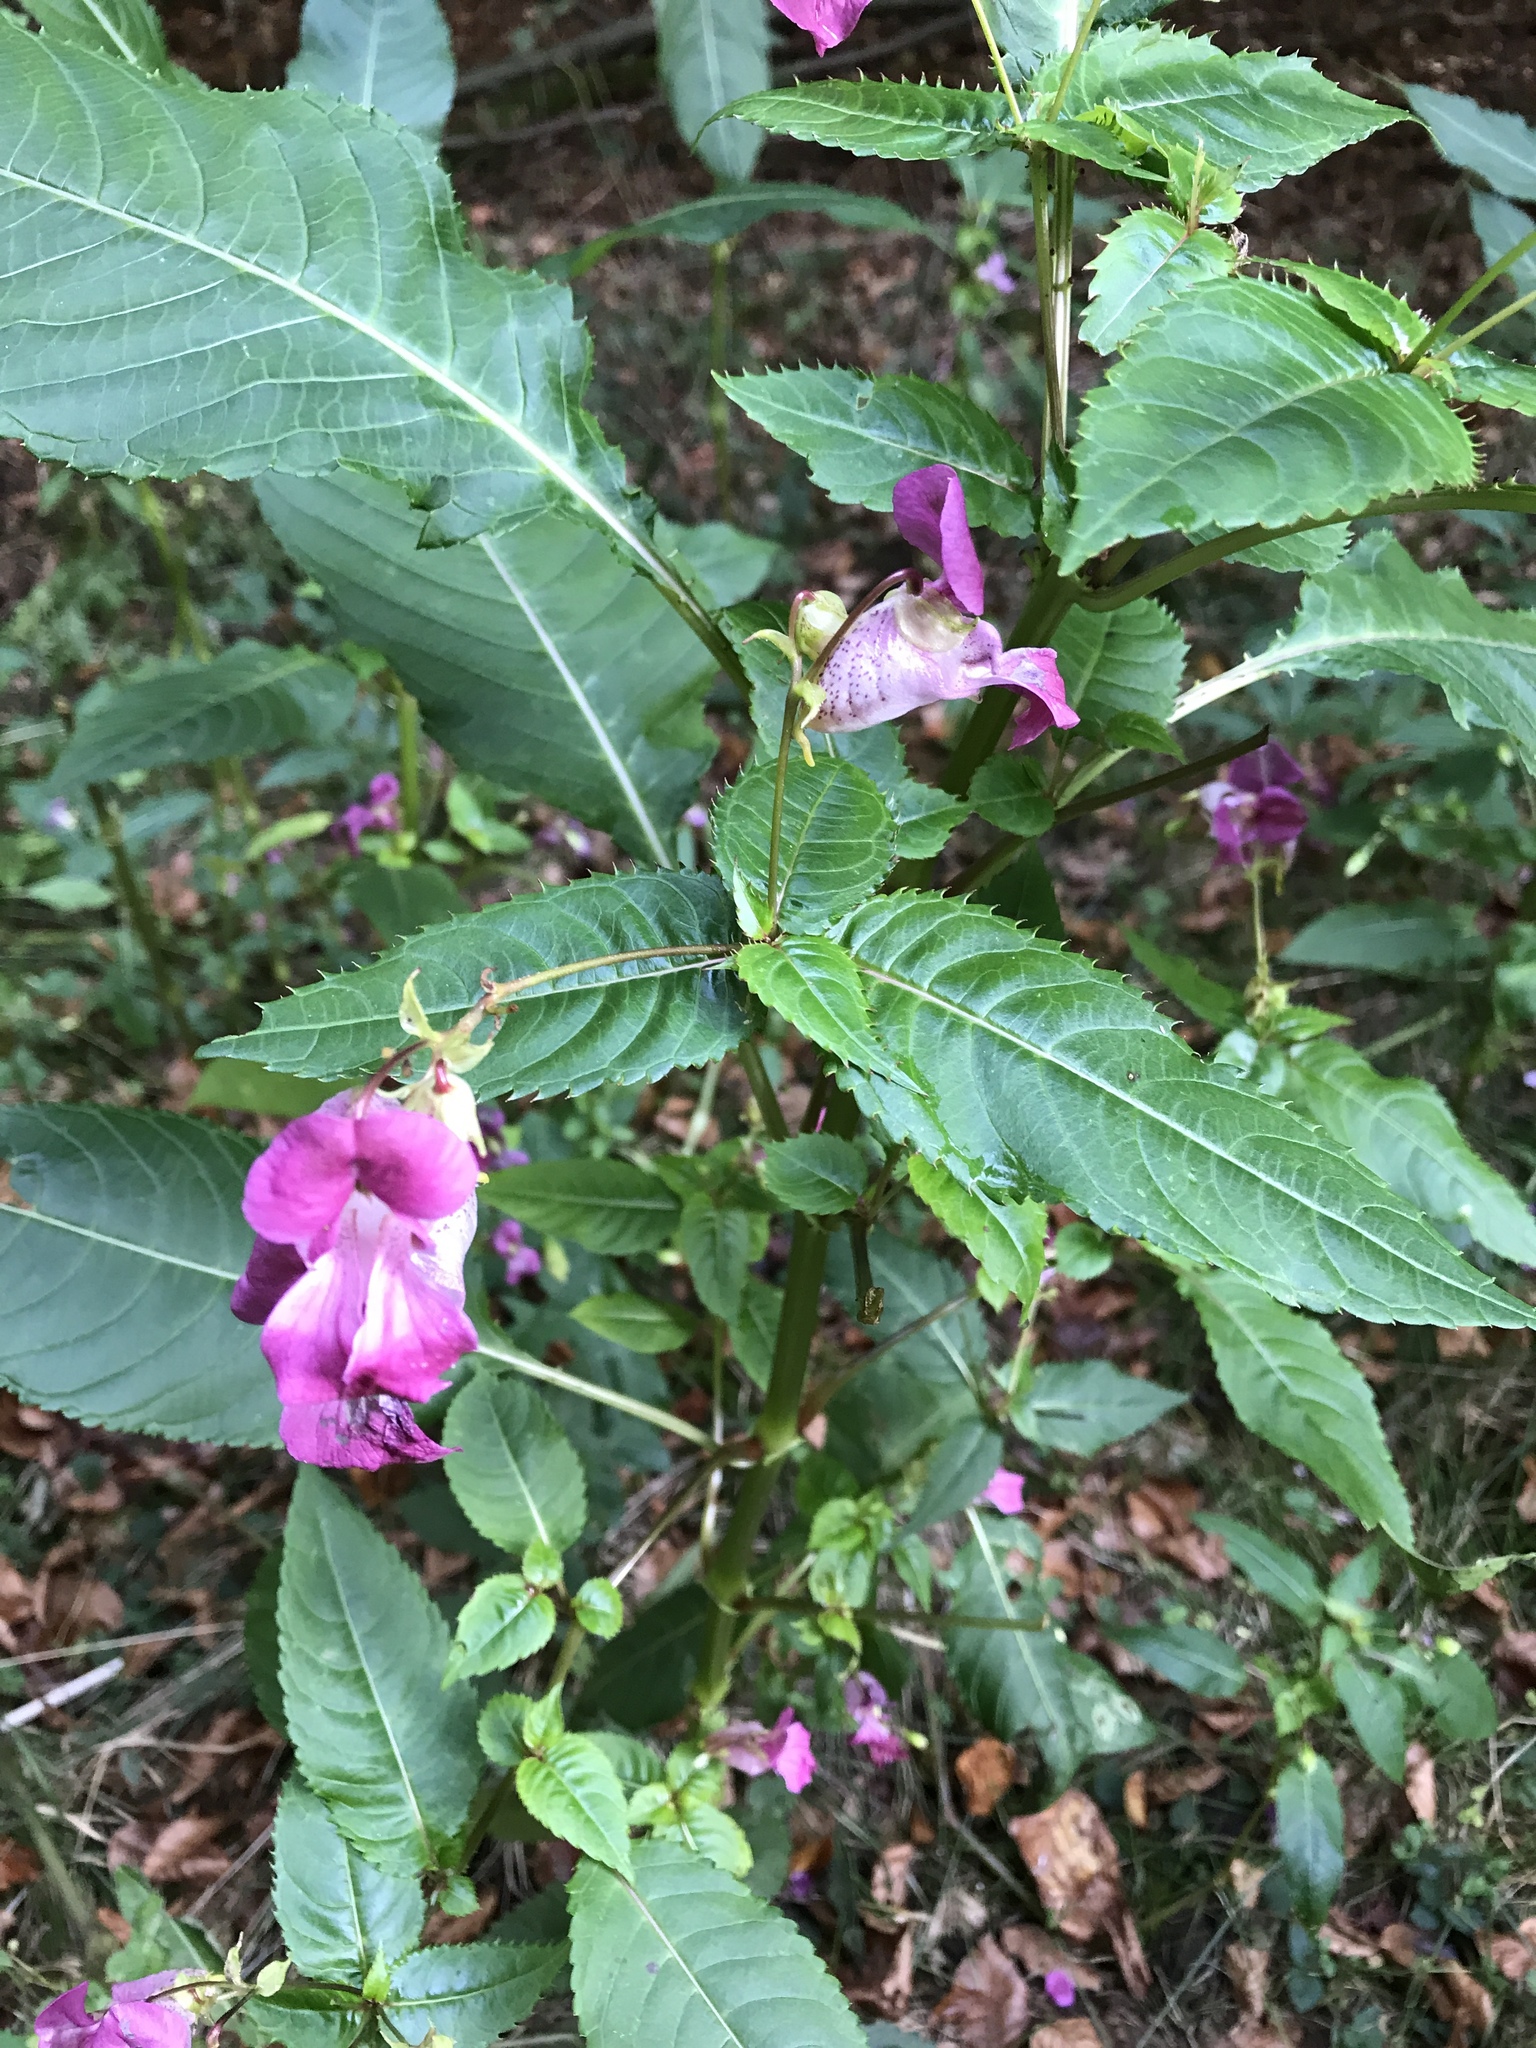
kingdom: Plantae
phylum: Tracheophyta
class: Magnoliopsida
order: Ericales
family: Balsaminaceae
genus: Impatiens
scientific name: Impatiens glandulifera
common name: Himalayan balsam
